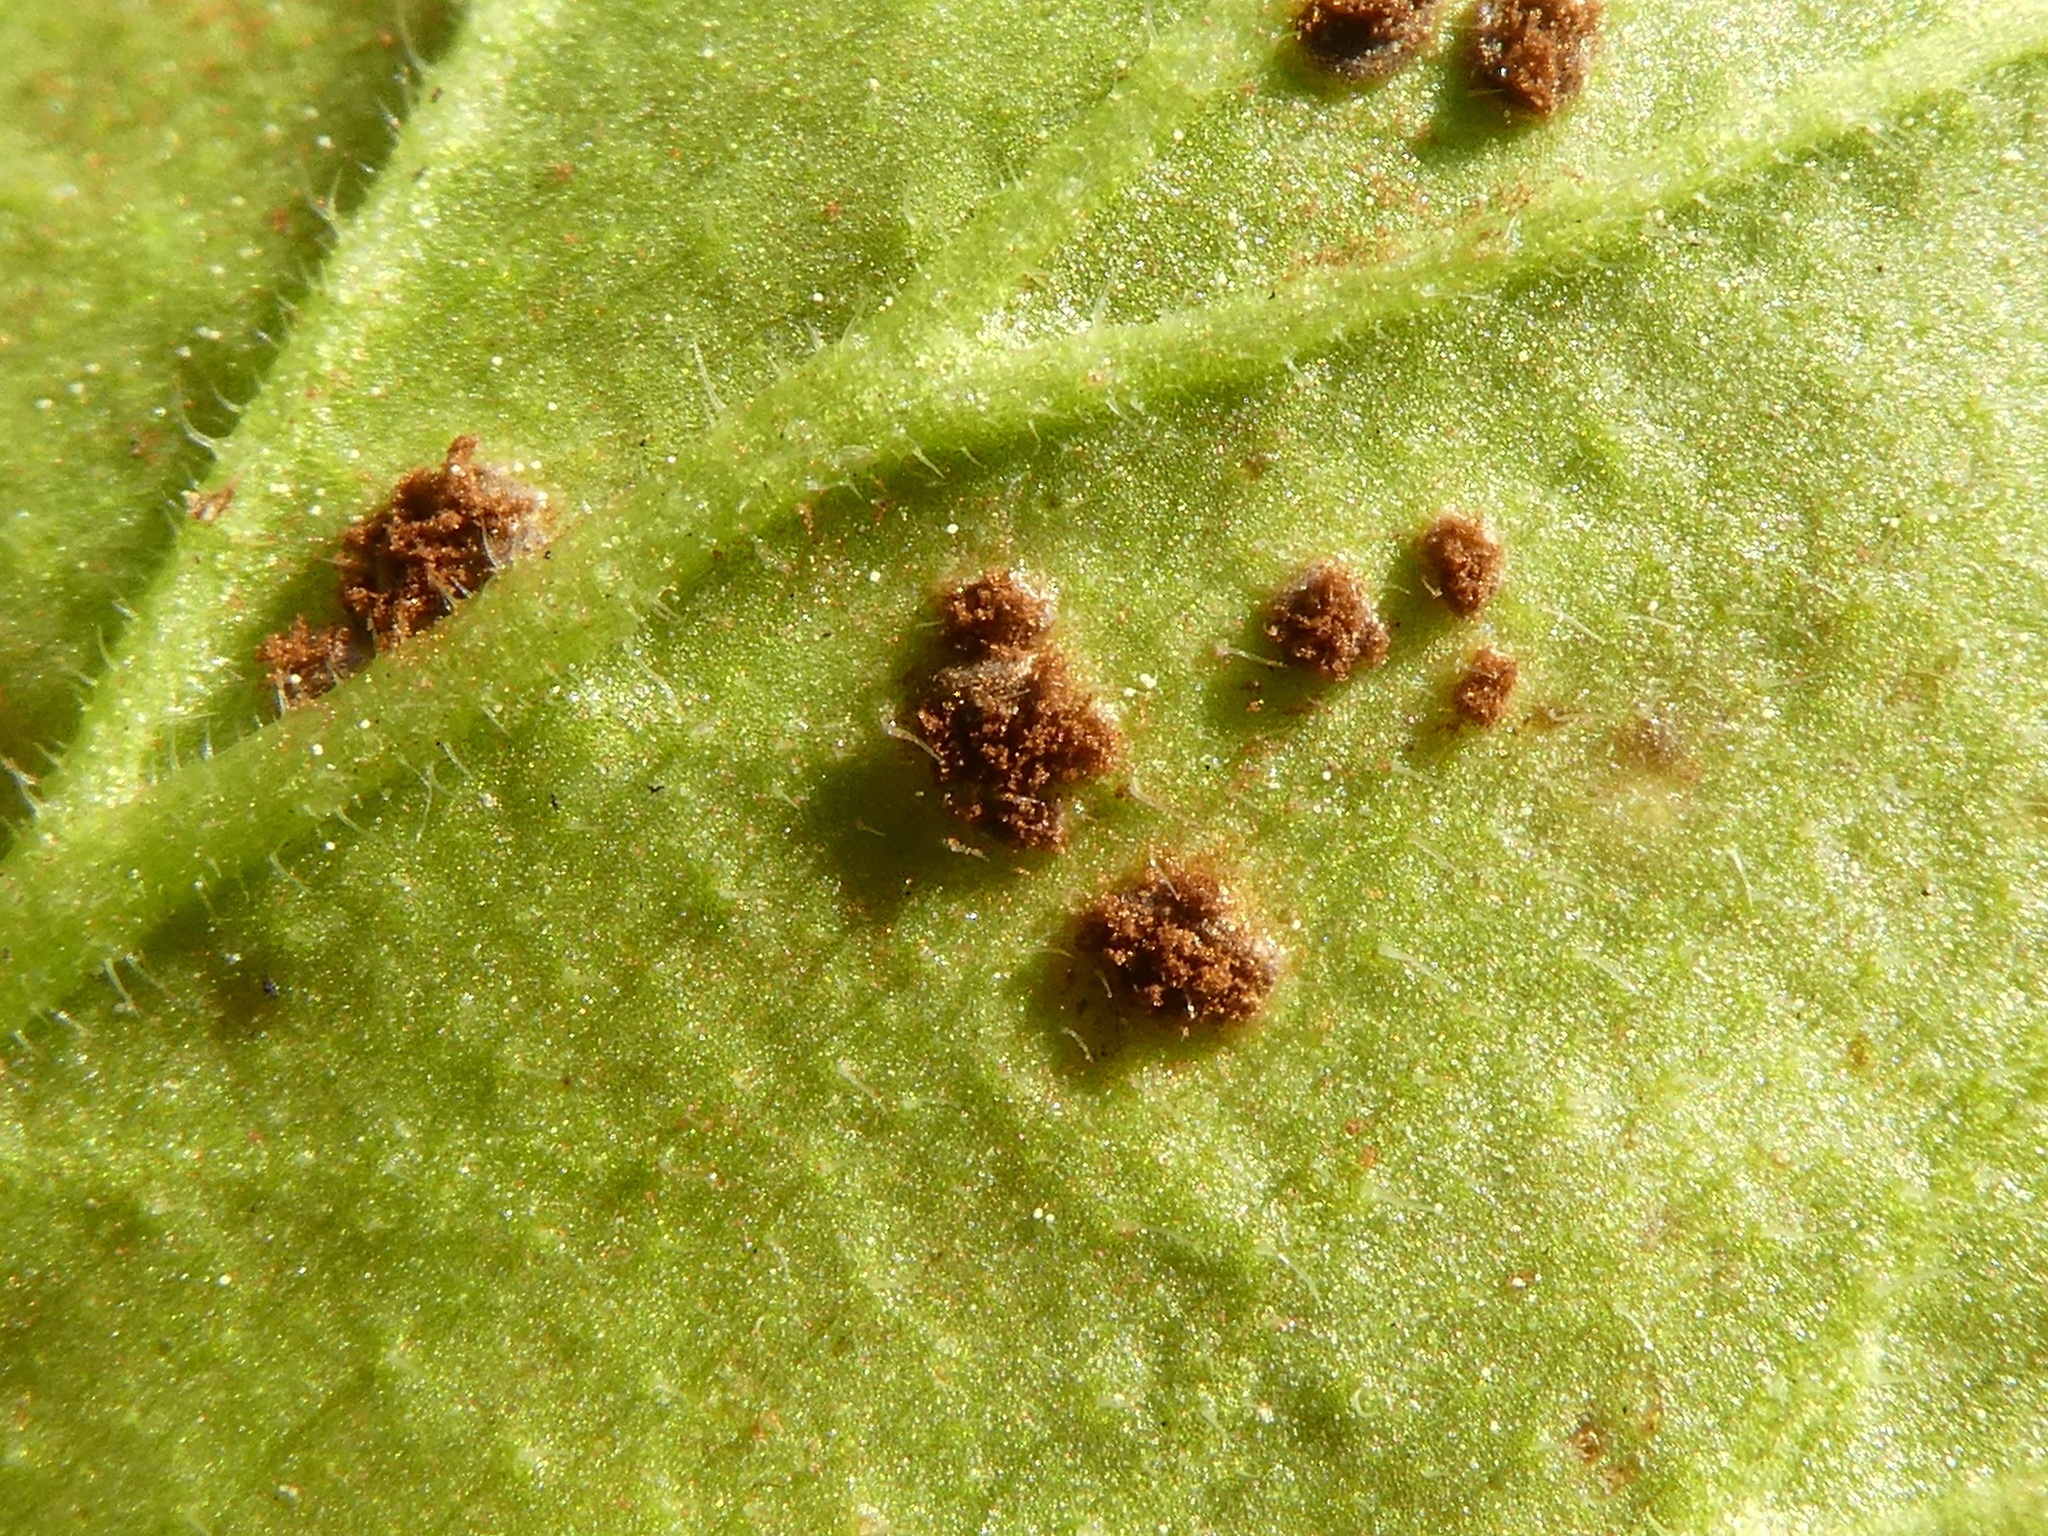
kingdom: Fungi
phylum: Basidiomycota
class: Pucciniomycetes
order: Pucciniales
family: Pucciniaceae
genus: Puccinia
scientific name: Puccinia pelargonii-zonalis
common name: Rust of pelargonium
